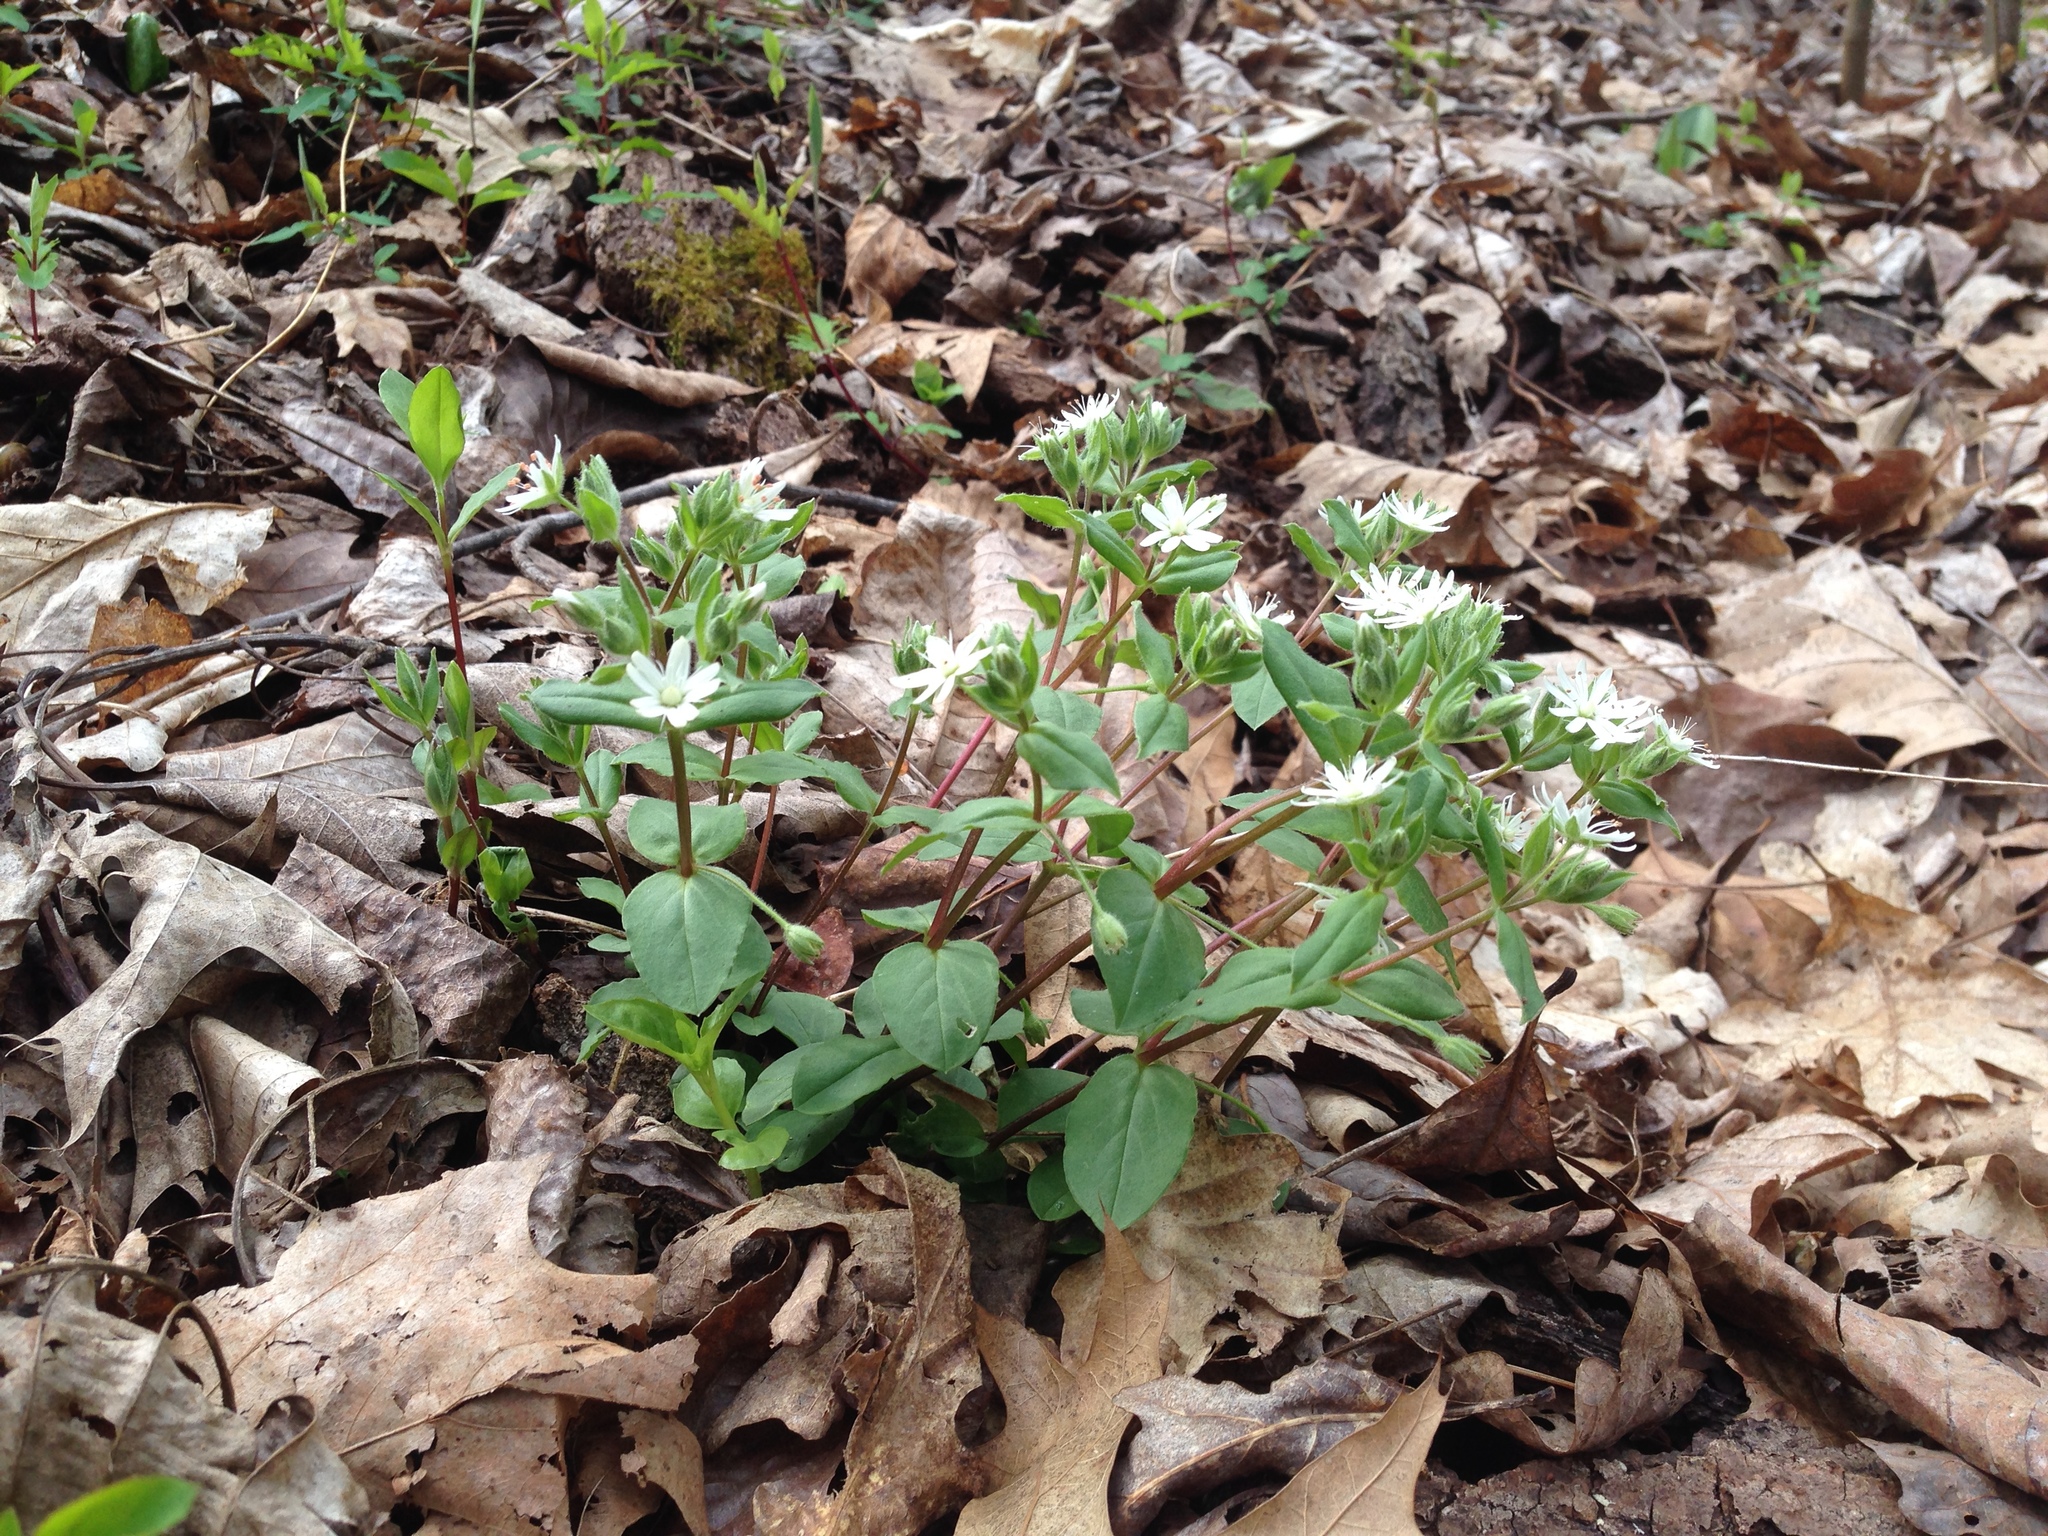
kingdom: Plantae
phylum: Tracheophyta
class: Magnoliopsida
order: Caryophyllales
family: Caryophyllaceae
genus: Stellaria
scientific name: Stellaria pubera
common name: Star chickweed
